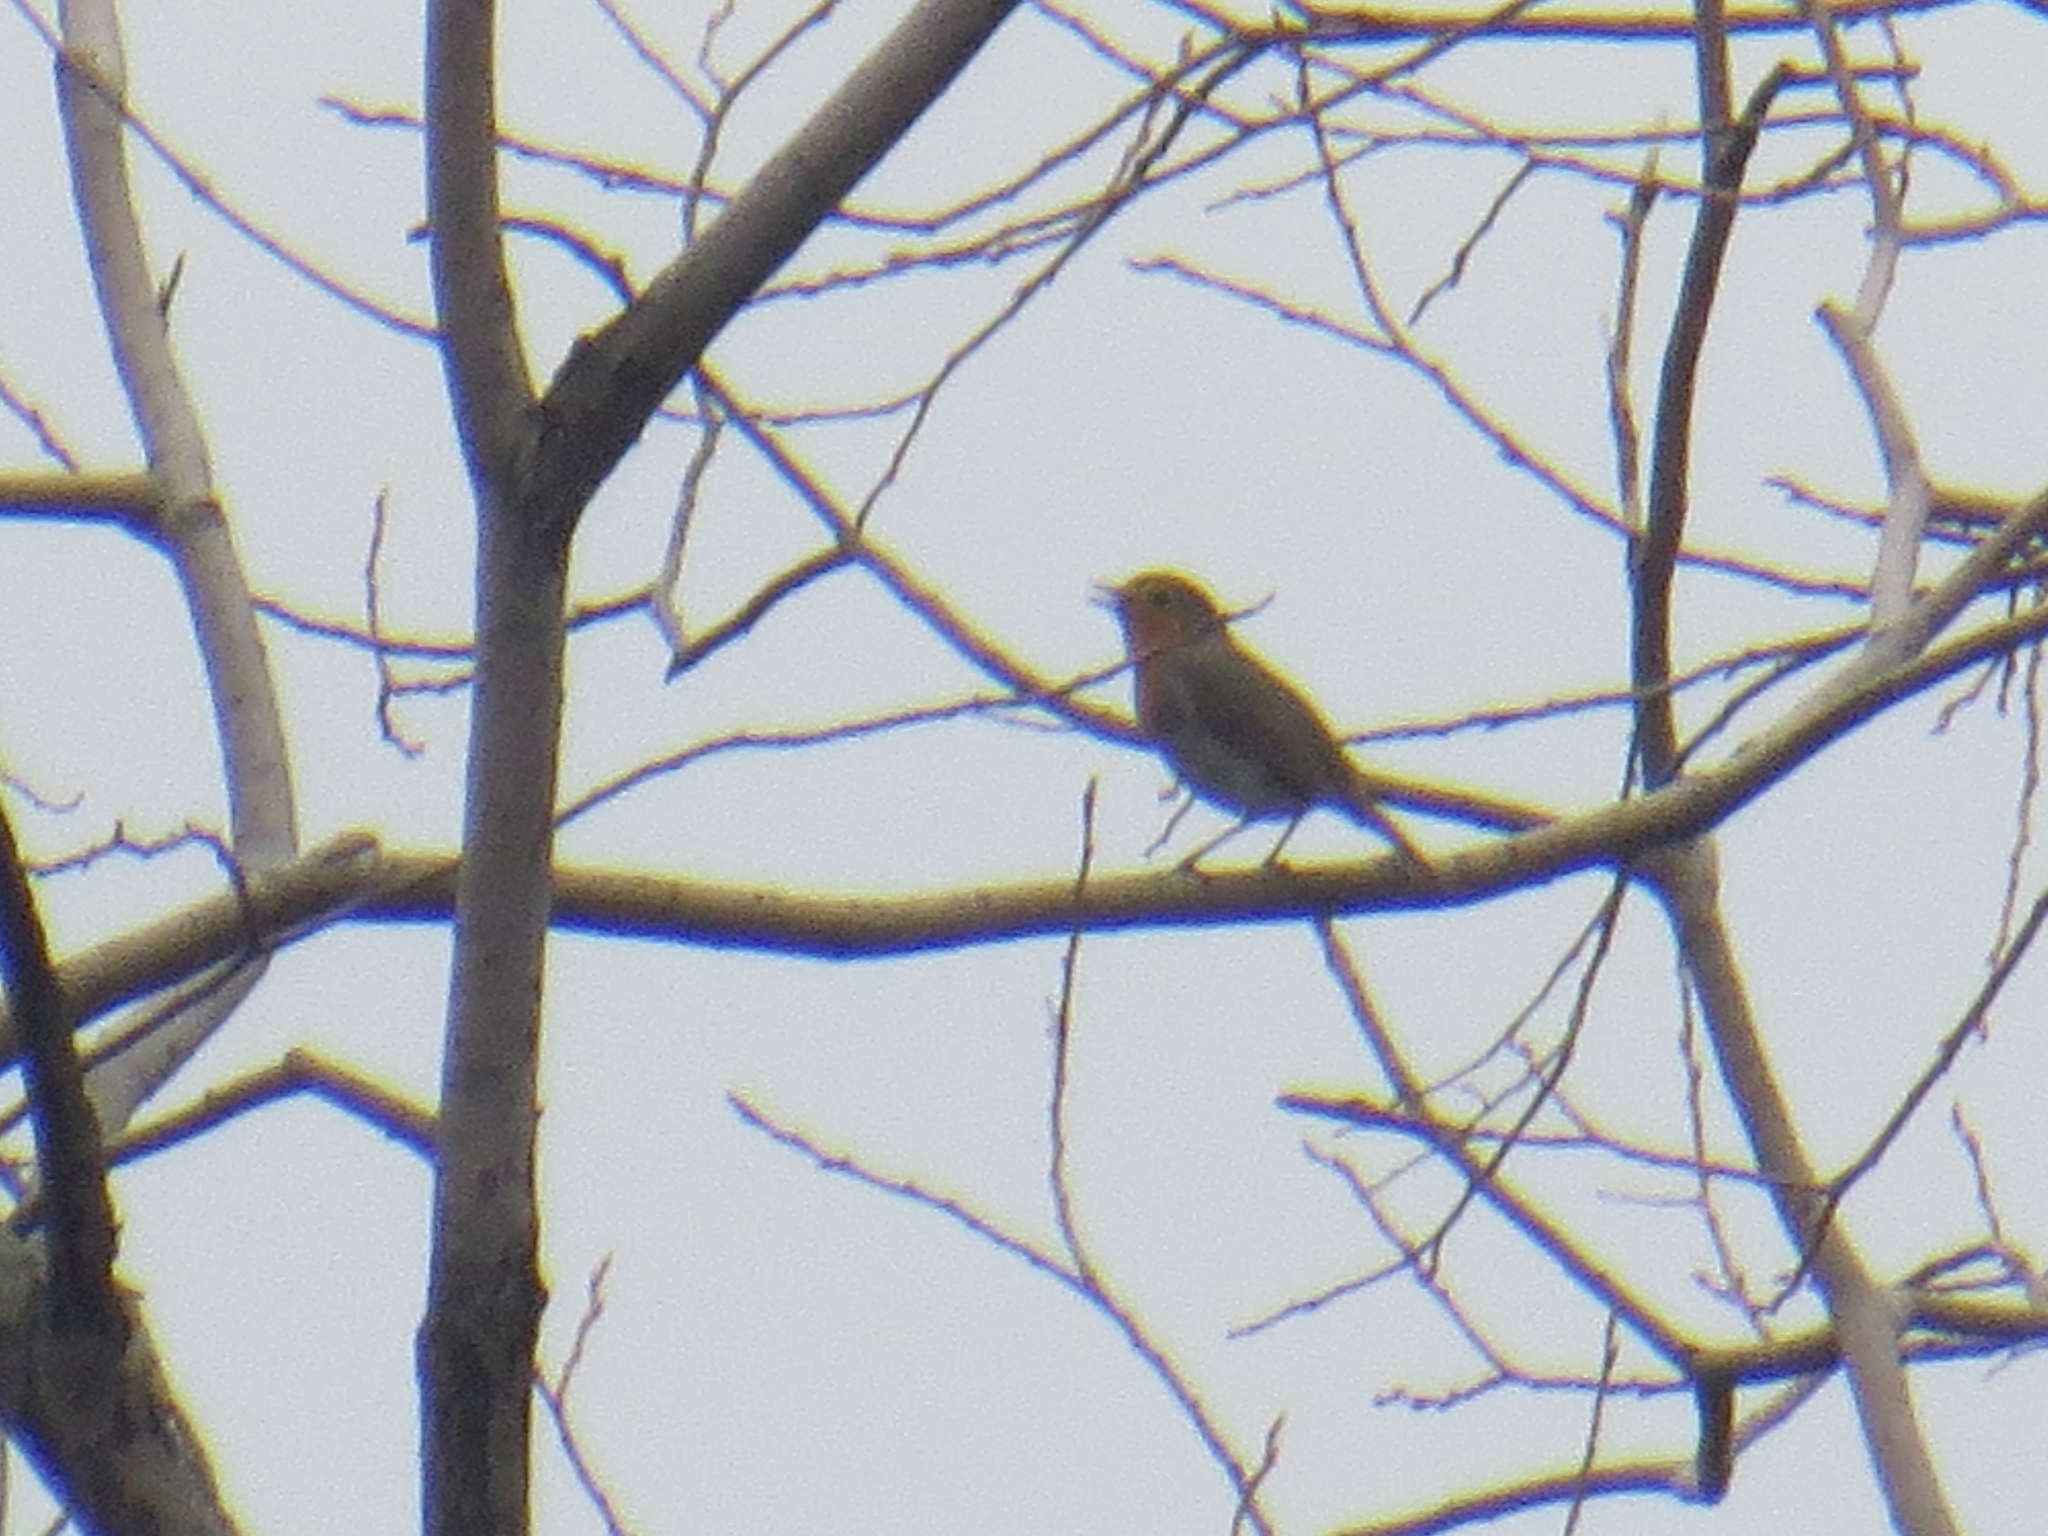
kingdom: Animalia
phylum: Chordata
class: Aves
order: Passeriformes
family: Muscicapidae
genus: Erithacus
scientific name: Erithacus rubecula
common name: European robin
